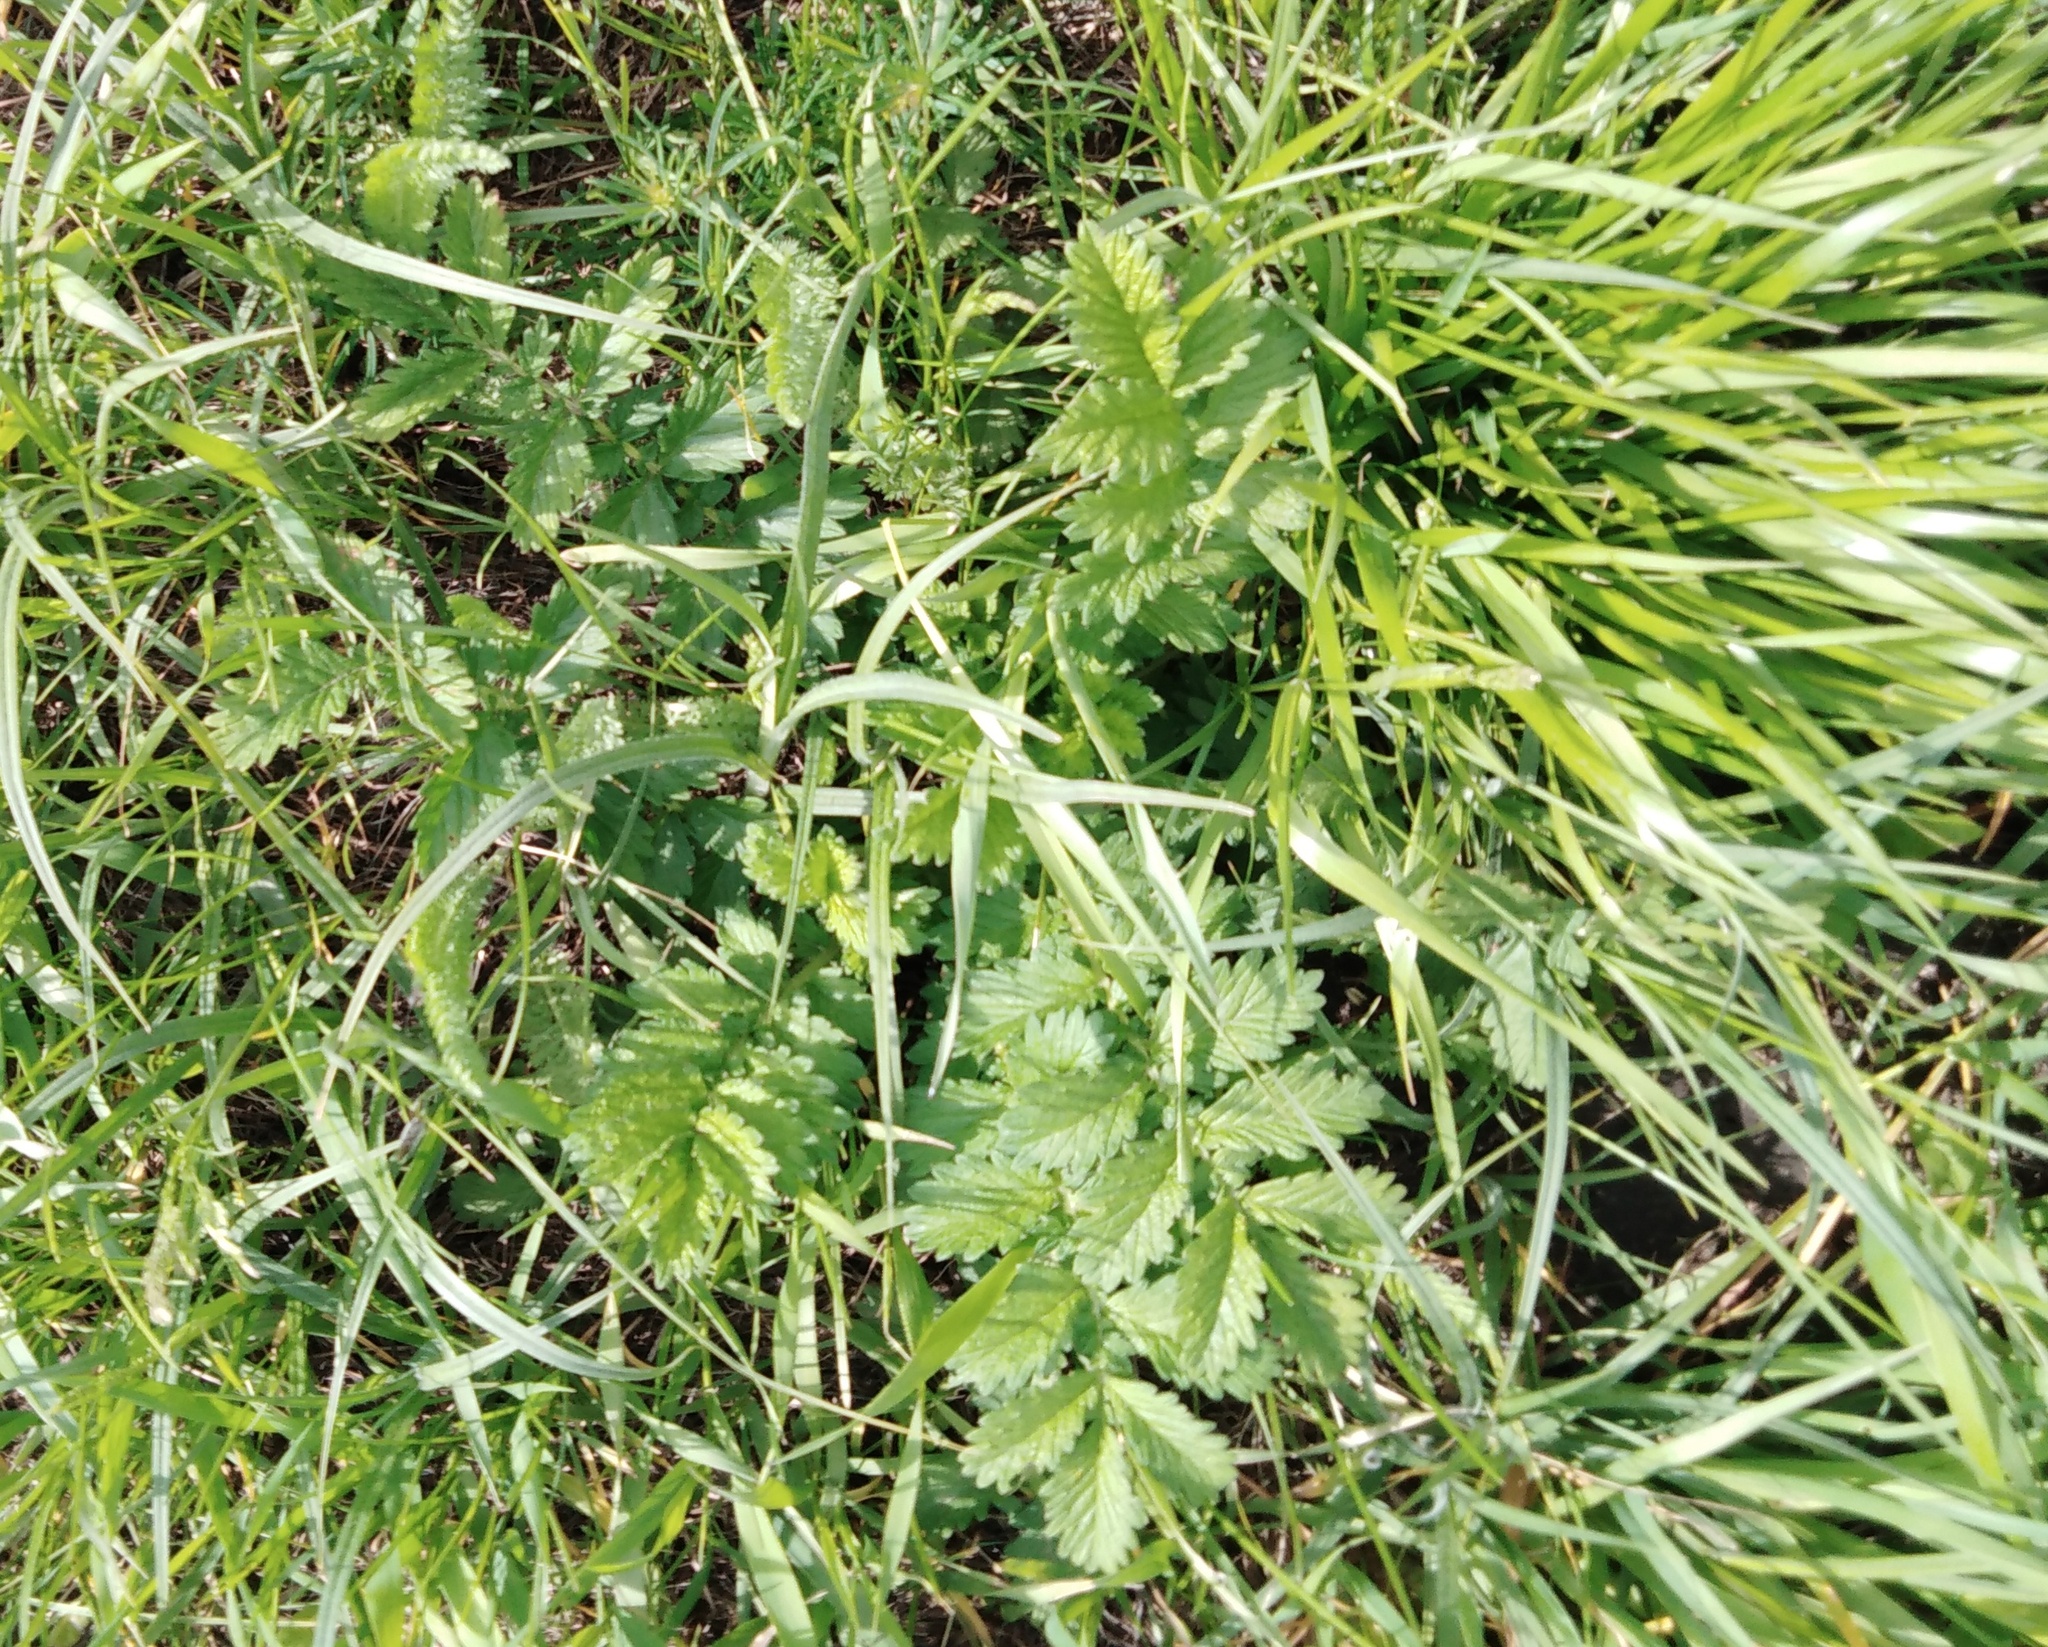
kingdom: Plantae
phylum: Tracheophyta
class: Magnoliopsida
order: Rosales
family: Rosaceae
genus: Agrimonia
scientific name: Agrimonia eupatoria
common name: Agrimony
